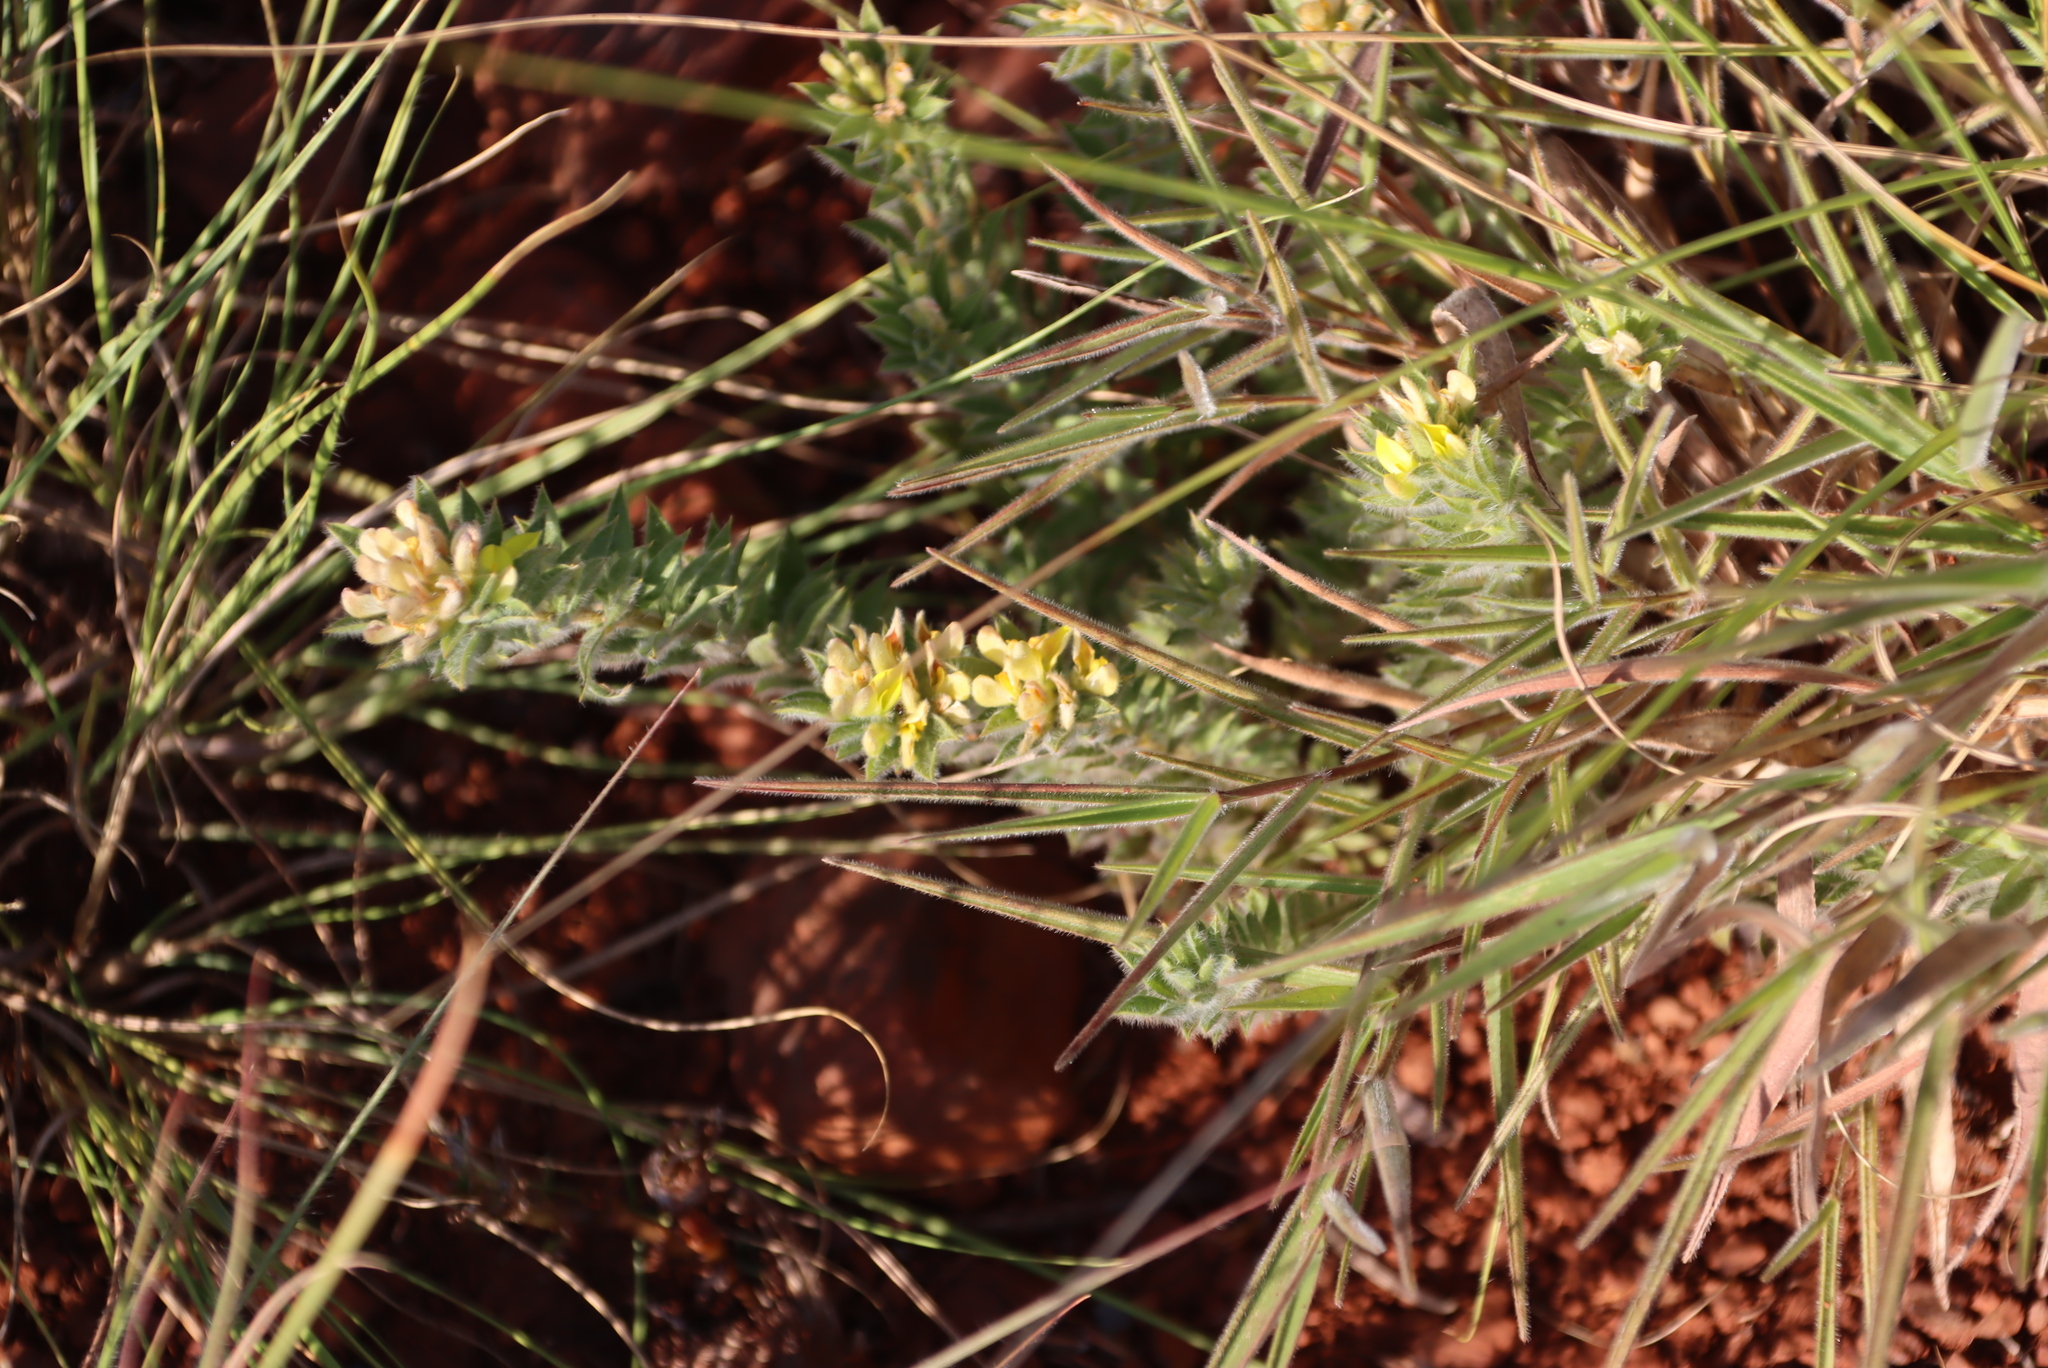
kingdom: Plantae
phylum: Tracheophyta
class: Magnoliopsida
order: Fabales
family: Fabaceae
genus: Leobordea
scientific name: Leobordea corymbosa
